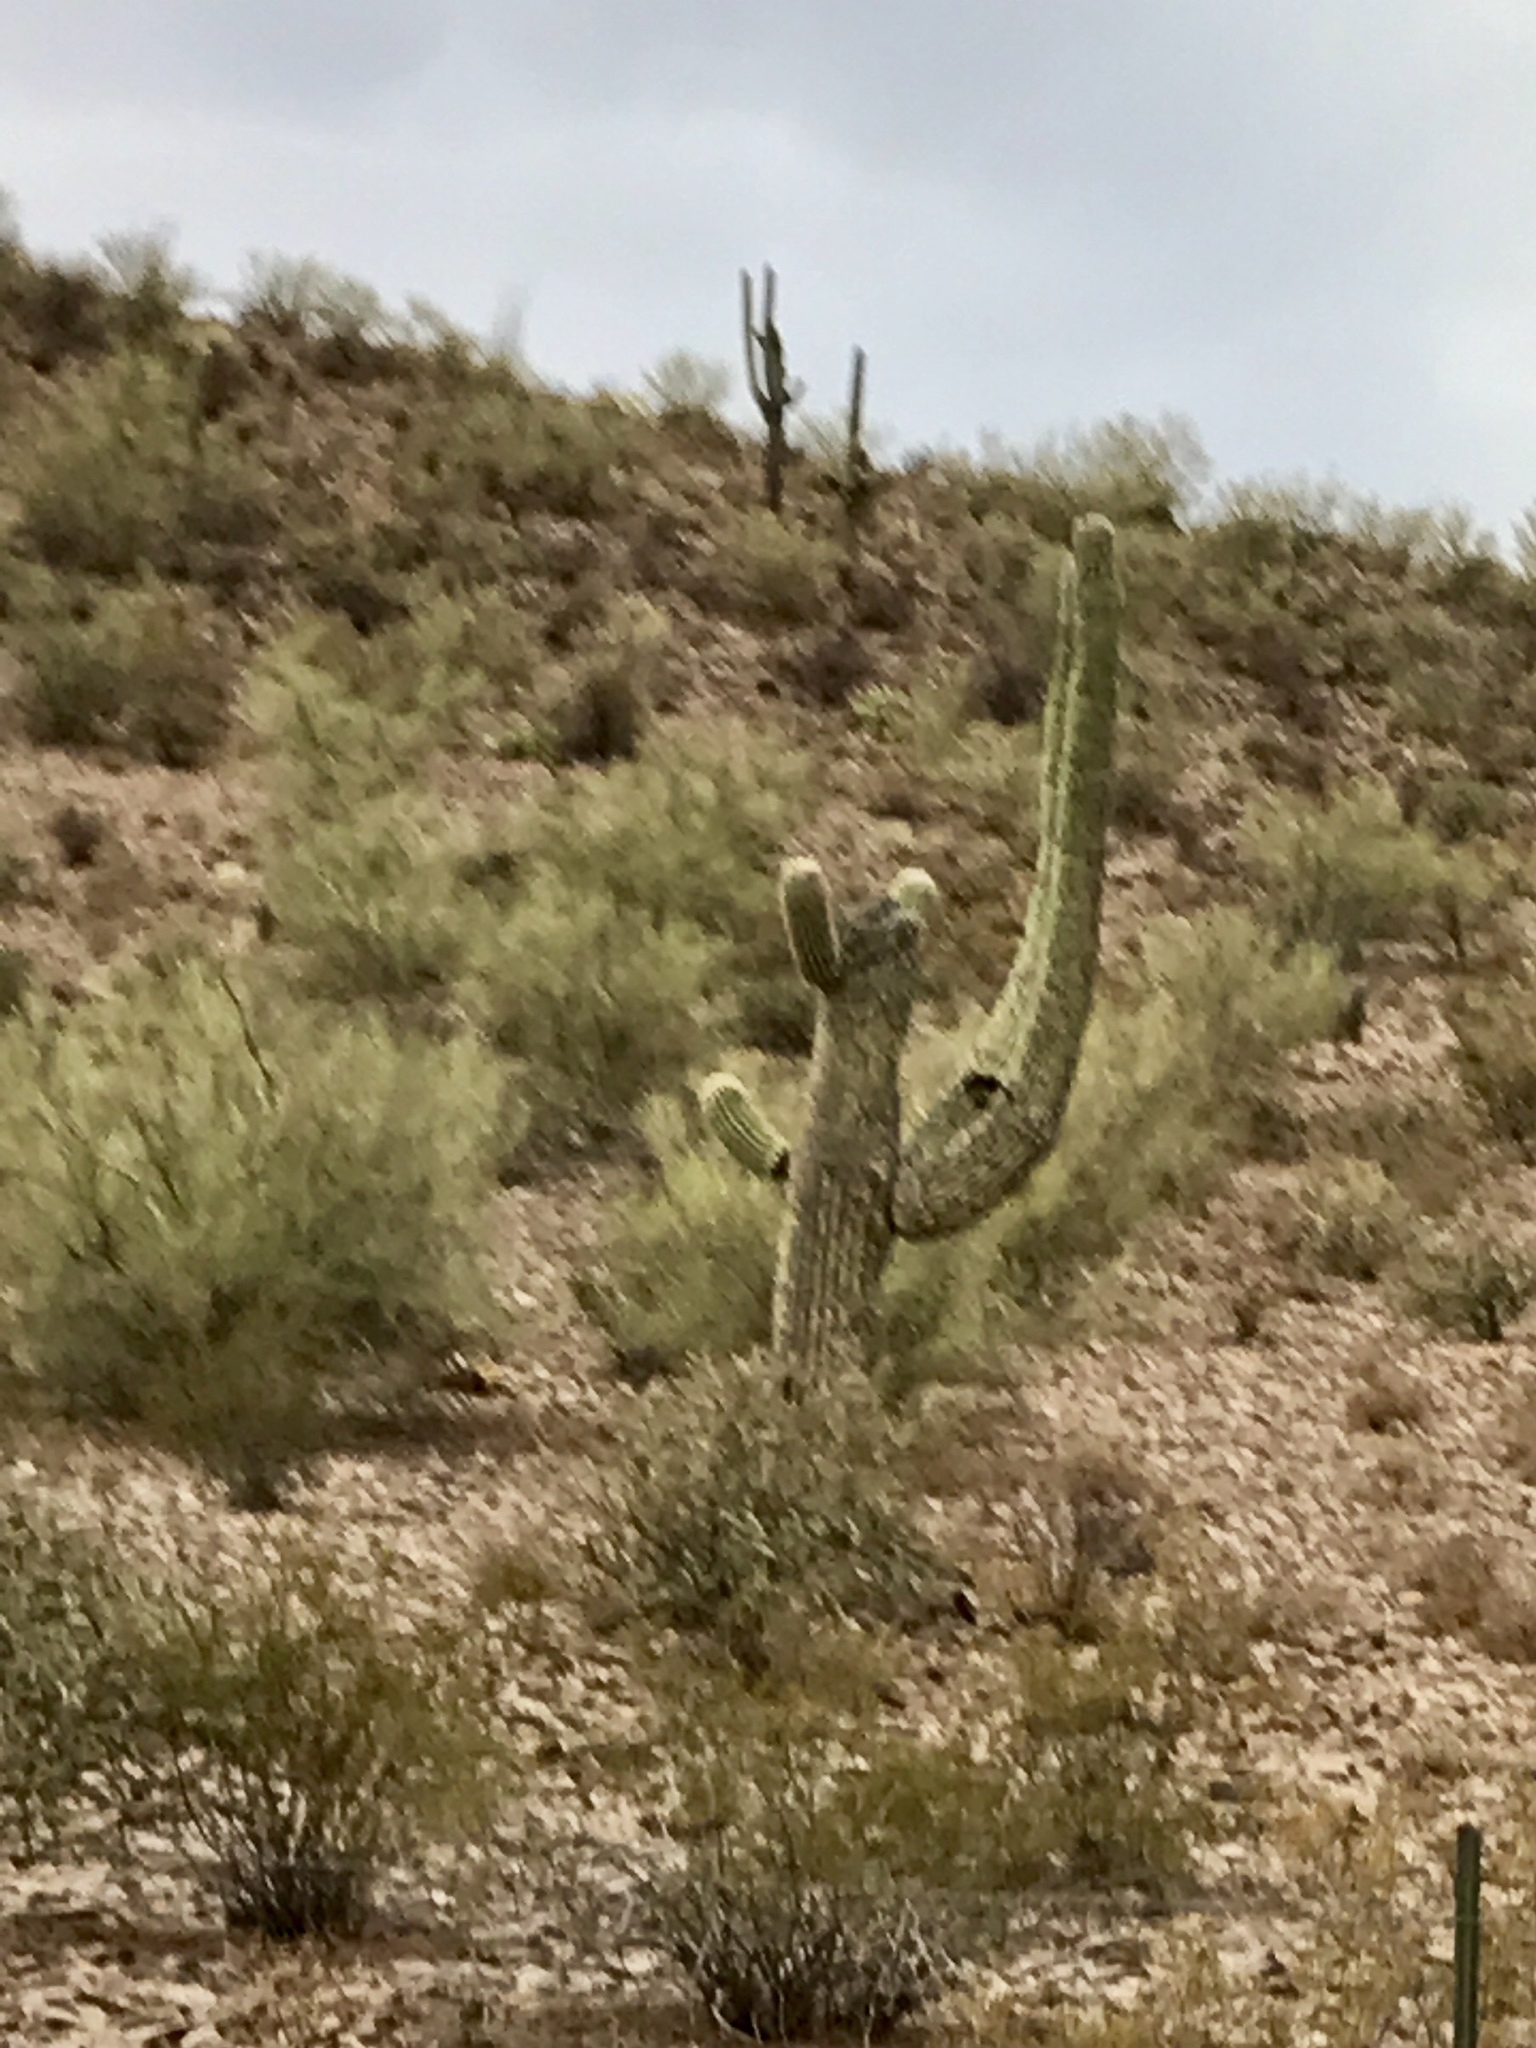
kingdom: Plantae
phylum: Tracheophyta
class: Magnoliopsida
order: Caryophyllales
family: Cactaceae
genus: Carnegiea
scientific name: Carnegiea gigantea
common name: Saguaro
